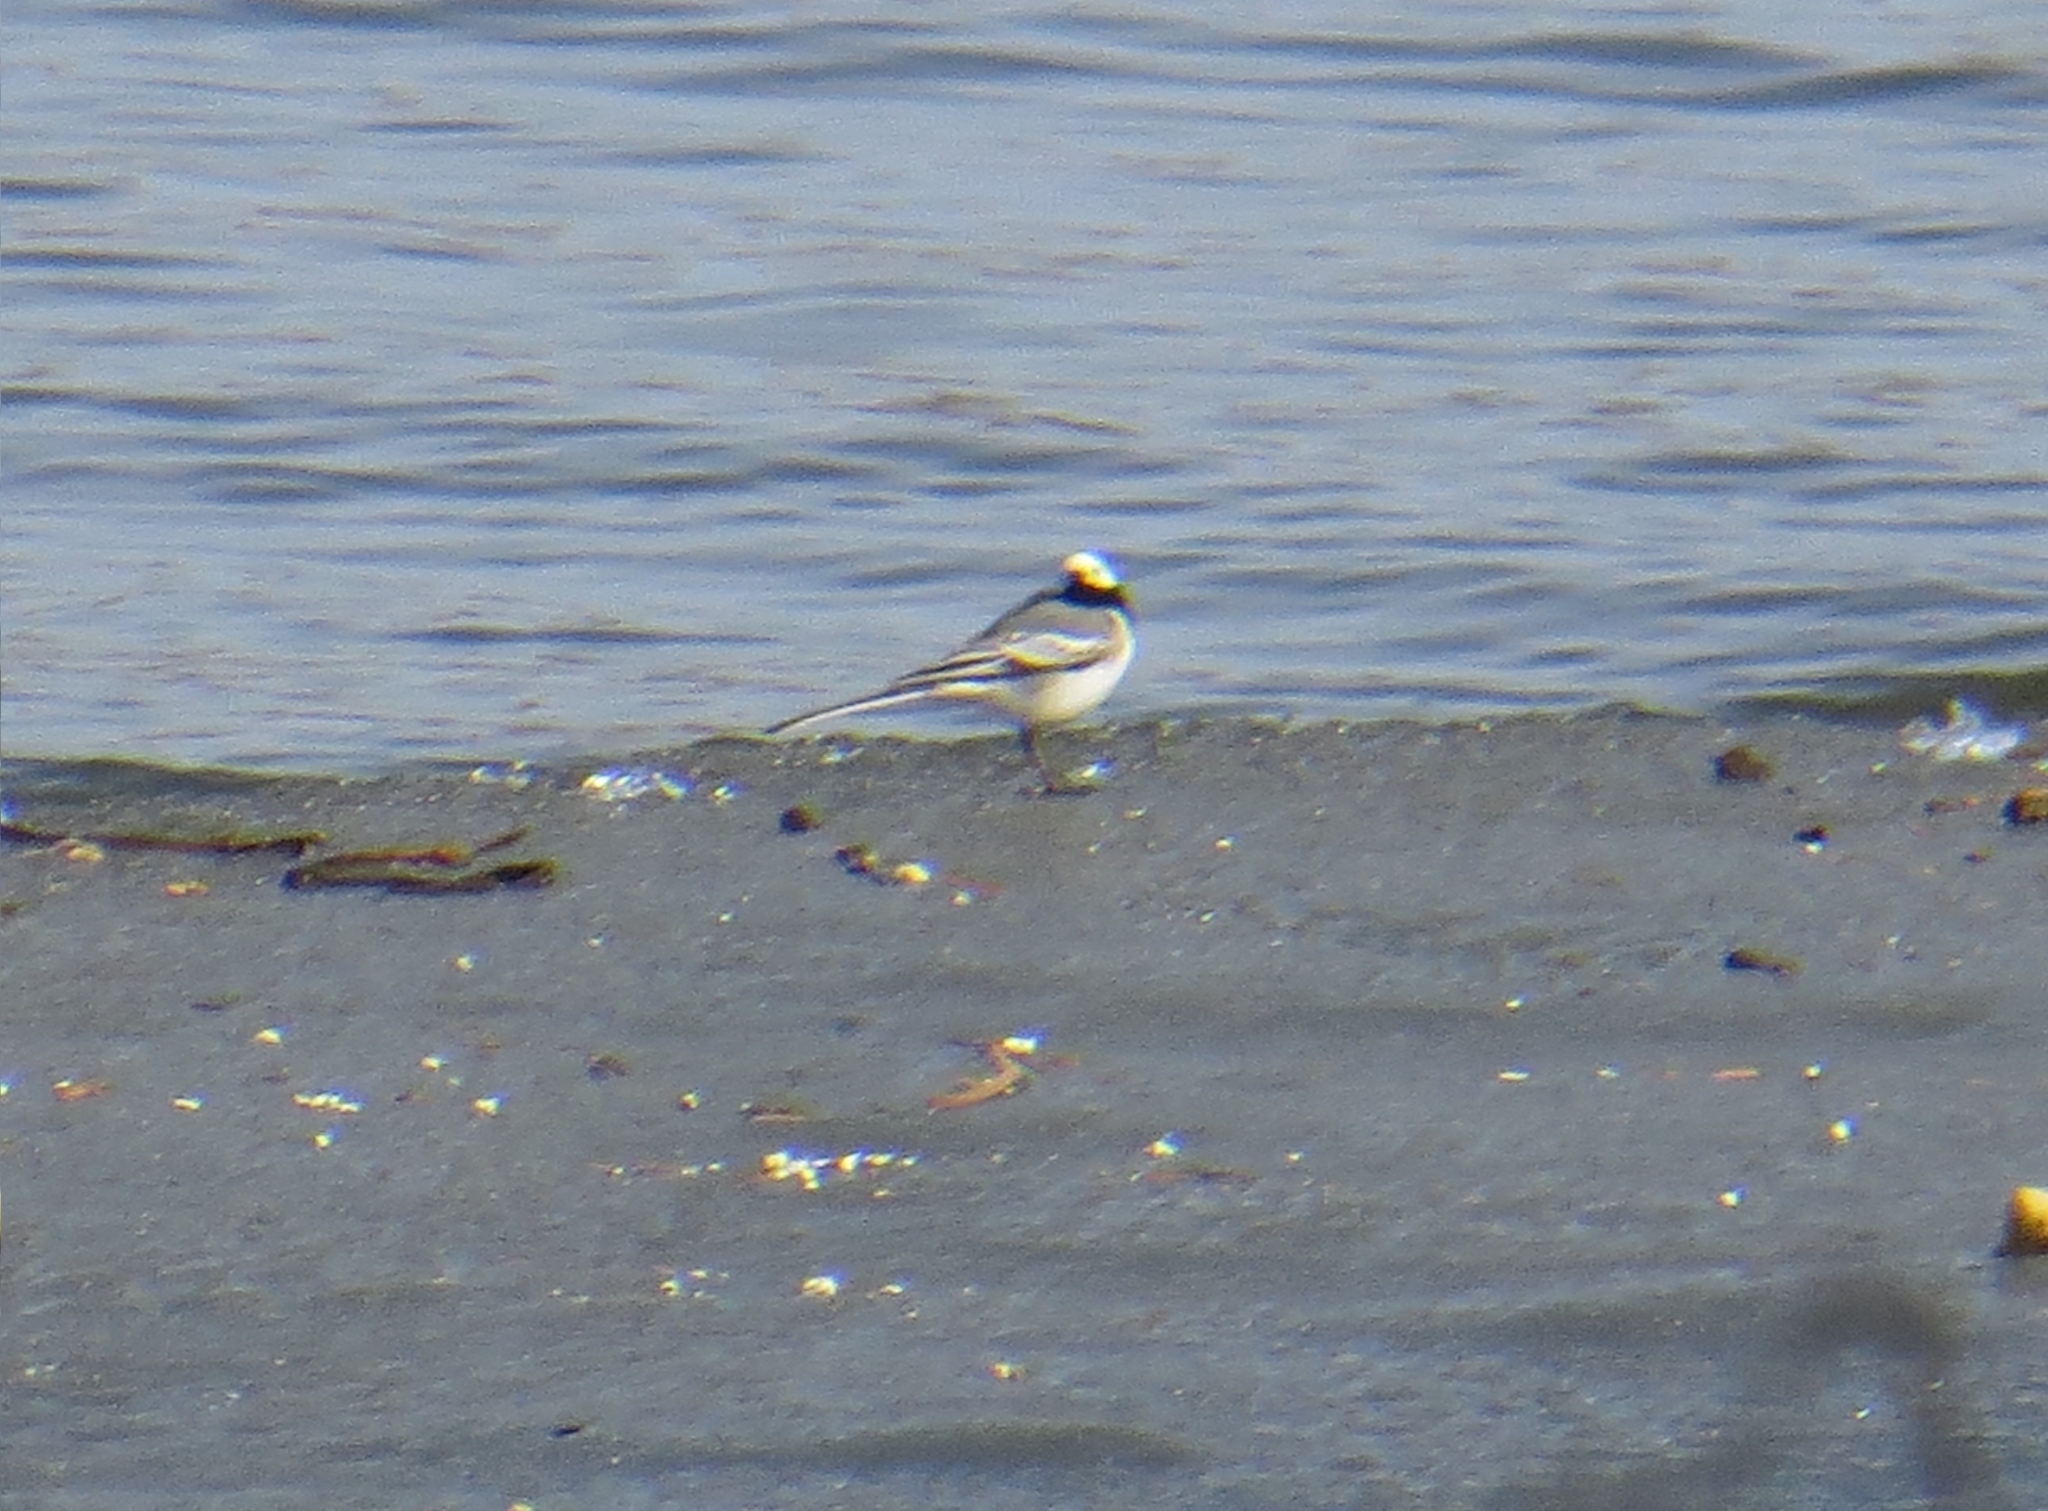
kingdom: Animalia
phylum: Chordata
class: Aves
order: Passeriformes
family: Motacillidae
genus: Motacilla
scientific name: Motacilla alba
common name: White wagtail
